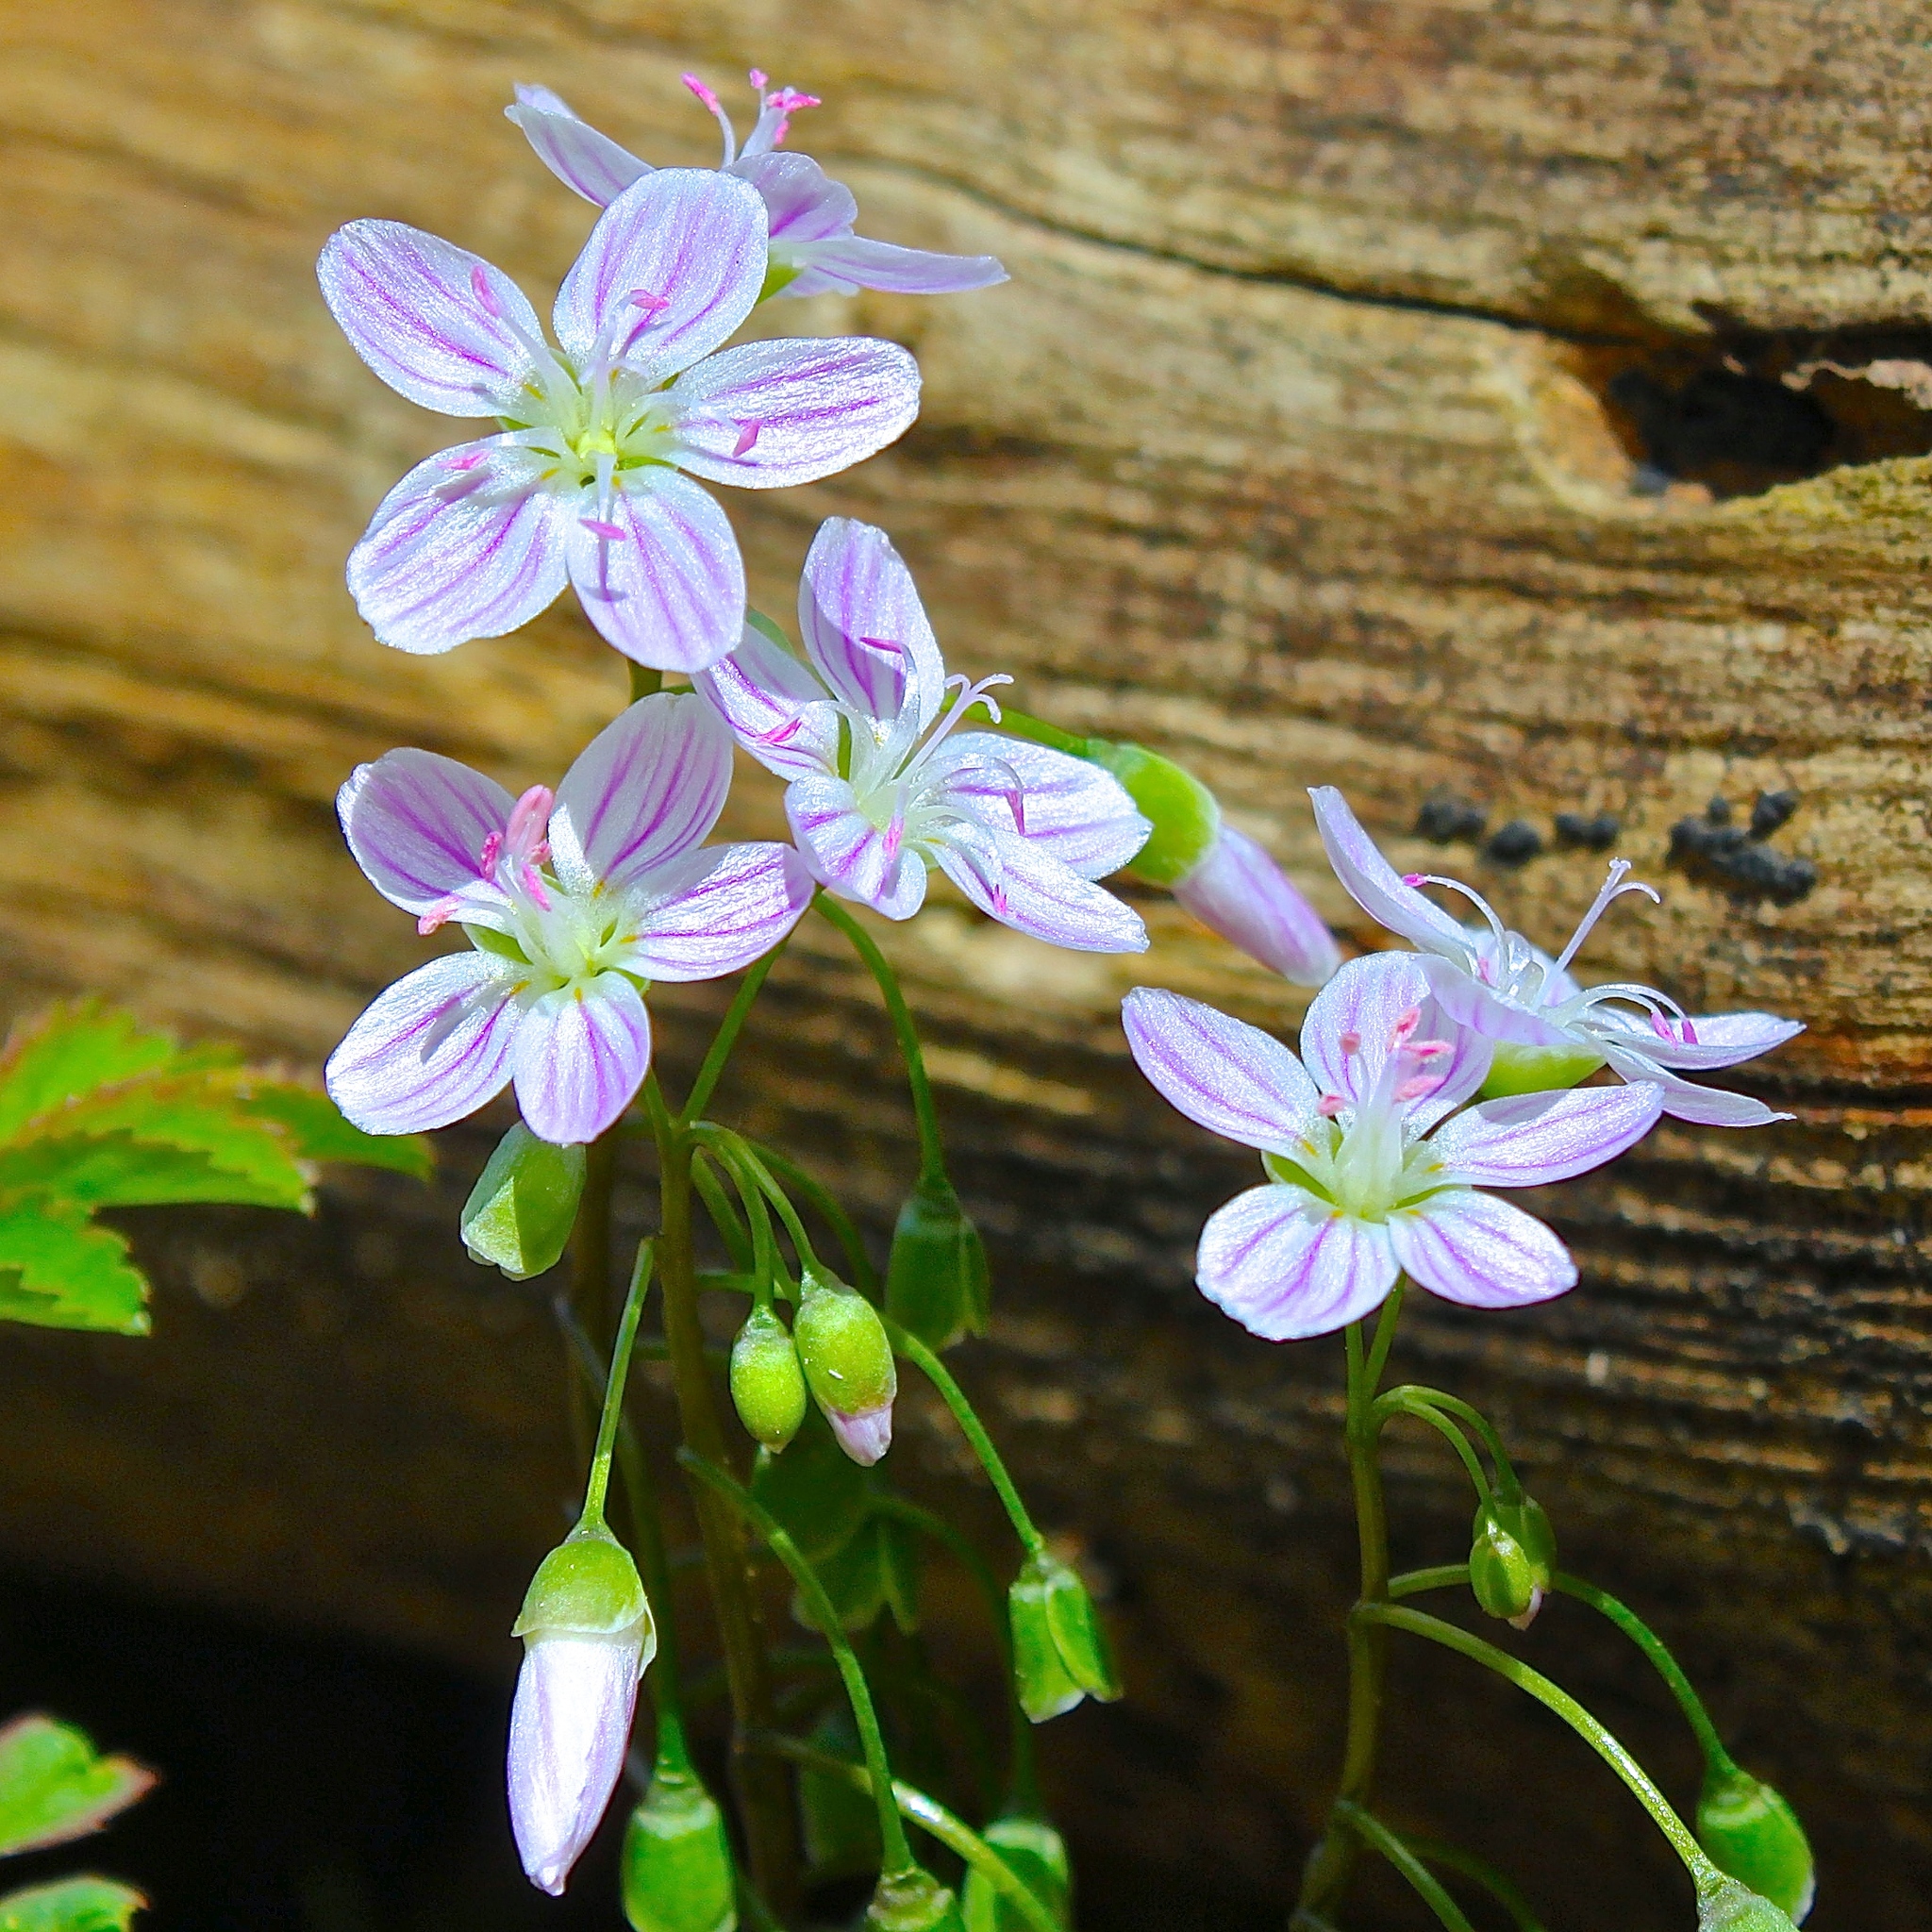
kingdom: Plantae
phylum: Tracheophyta
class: Magnoliopsida
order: Caryophyllales
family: Montiaceae
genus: Claytonia
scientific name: Claytonia
